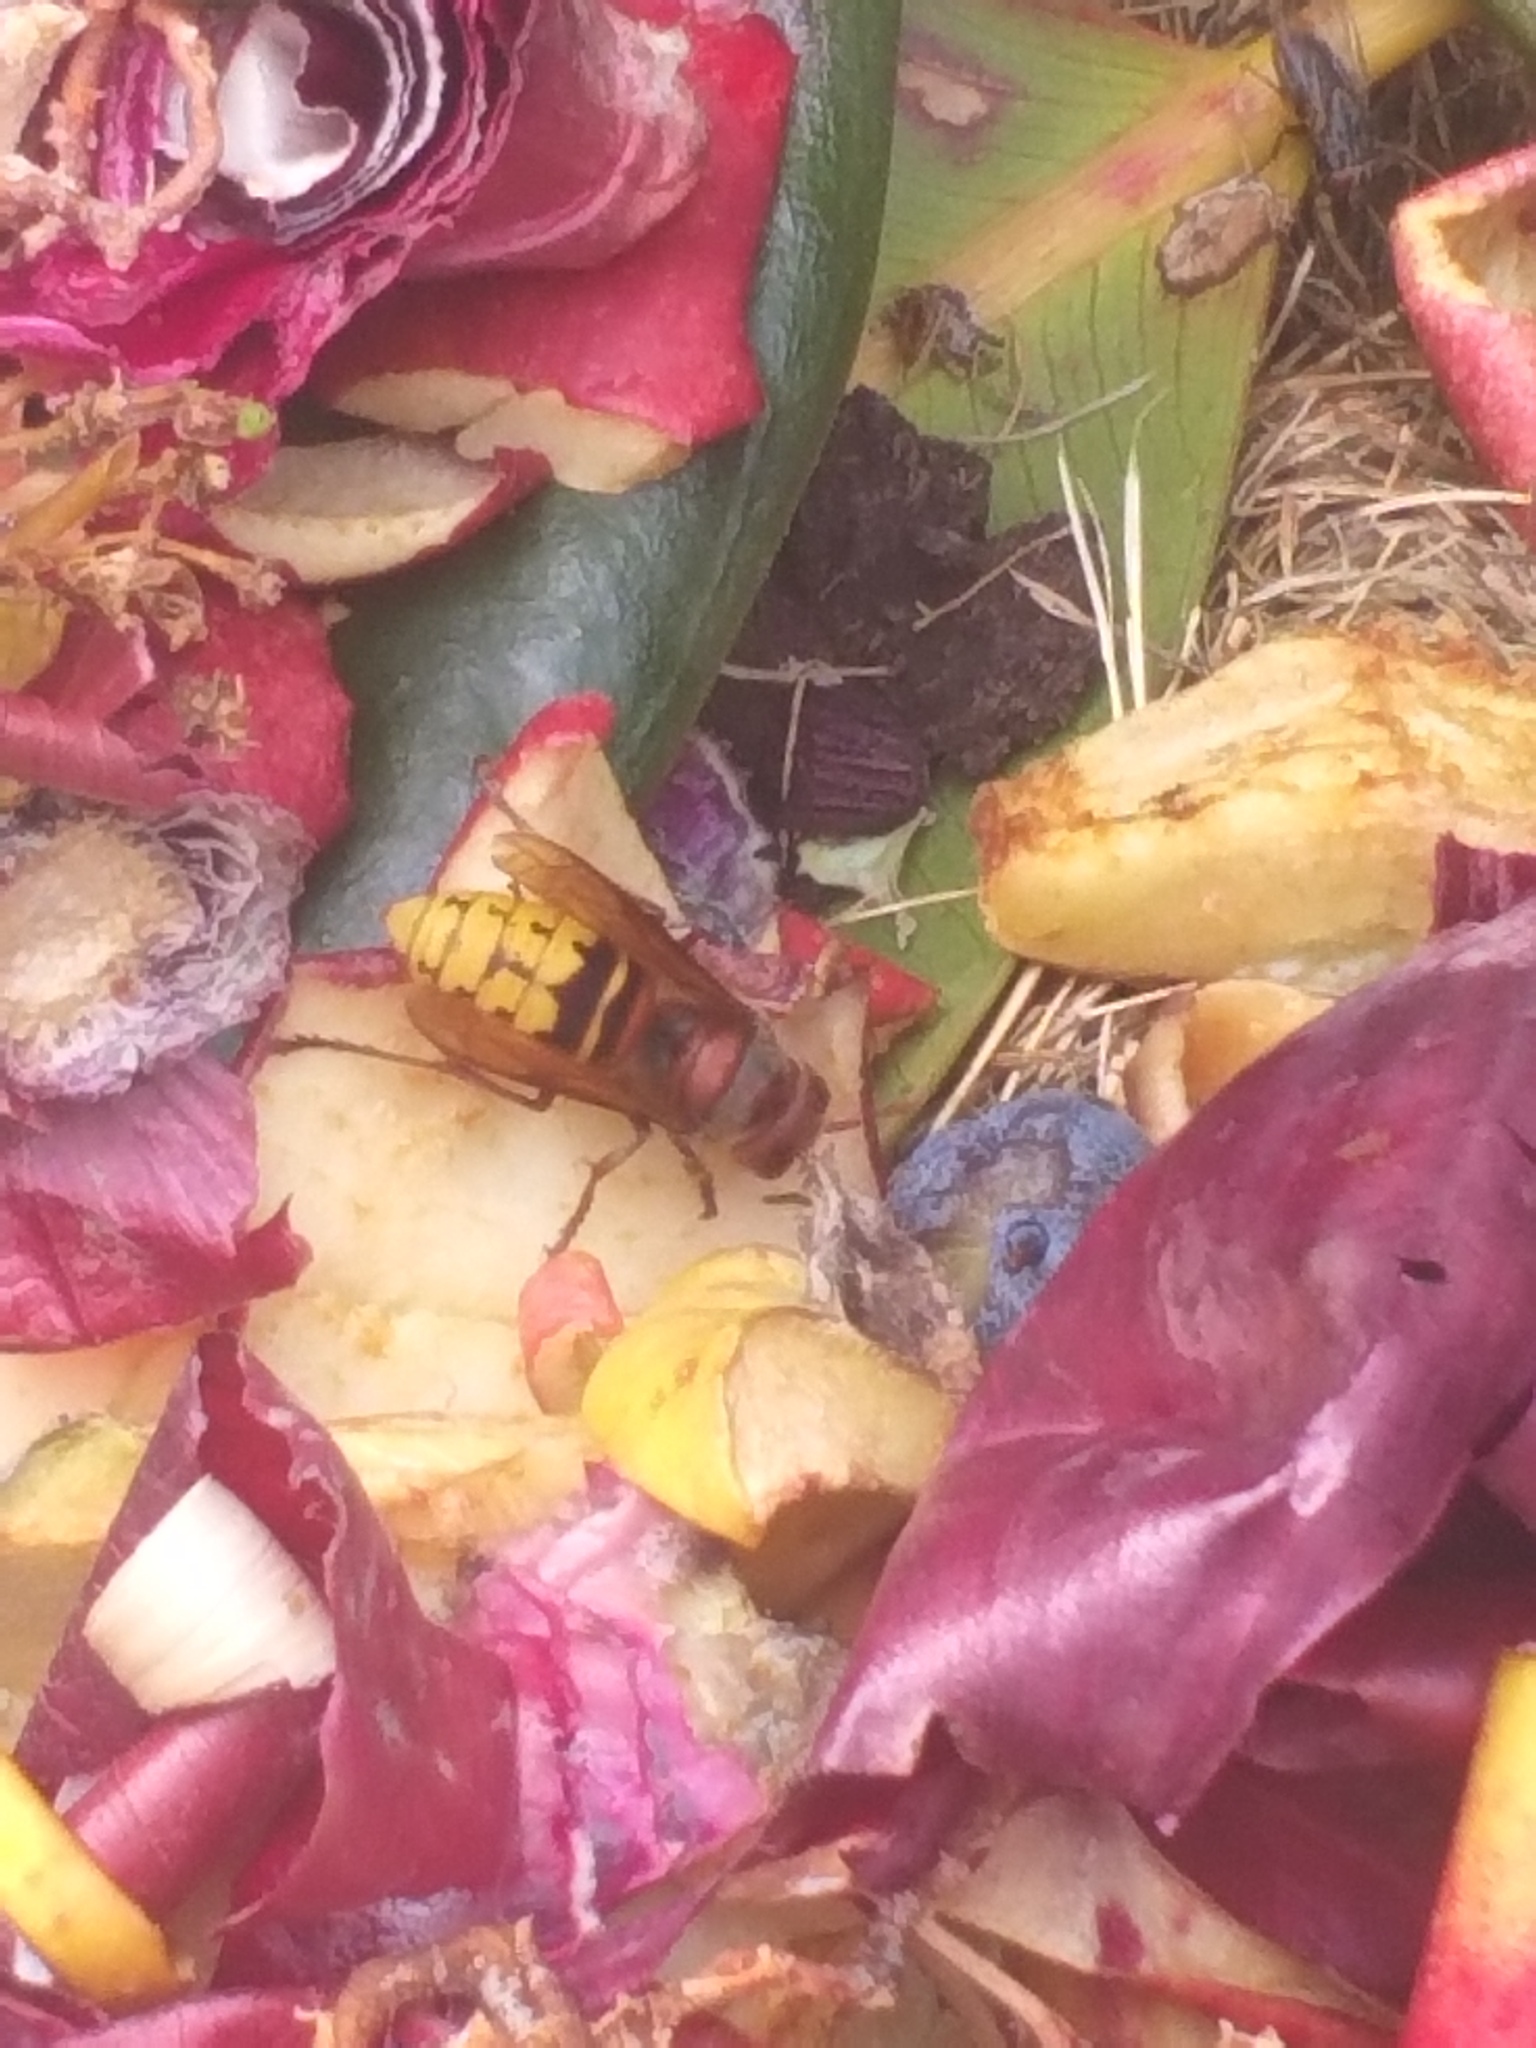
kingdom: Animalia
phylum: Arthropoda
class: Insecta
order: Hymenoptera
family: Vespidae
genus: Vespa
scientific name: Vespa crabro
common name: Hornet
